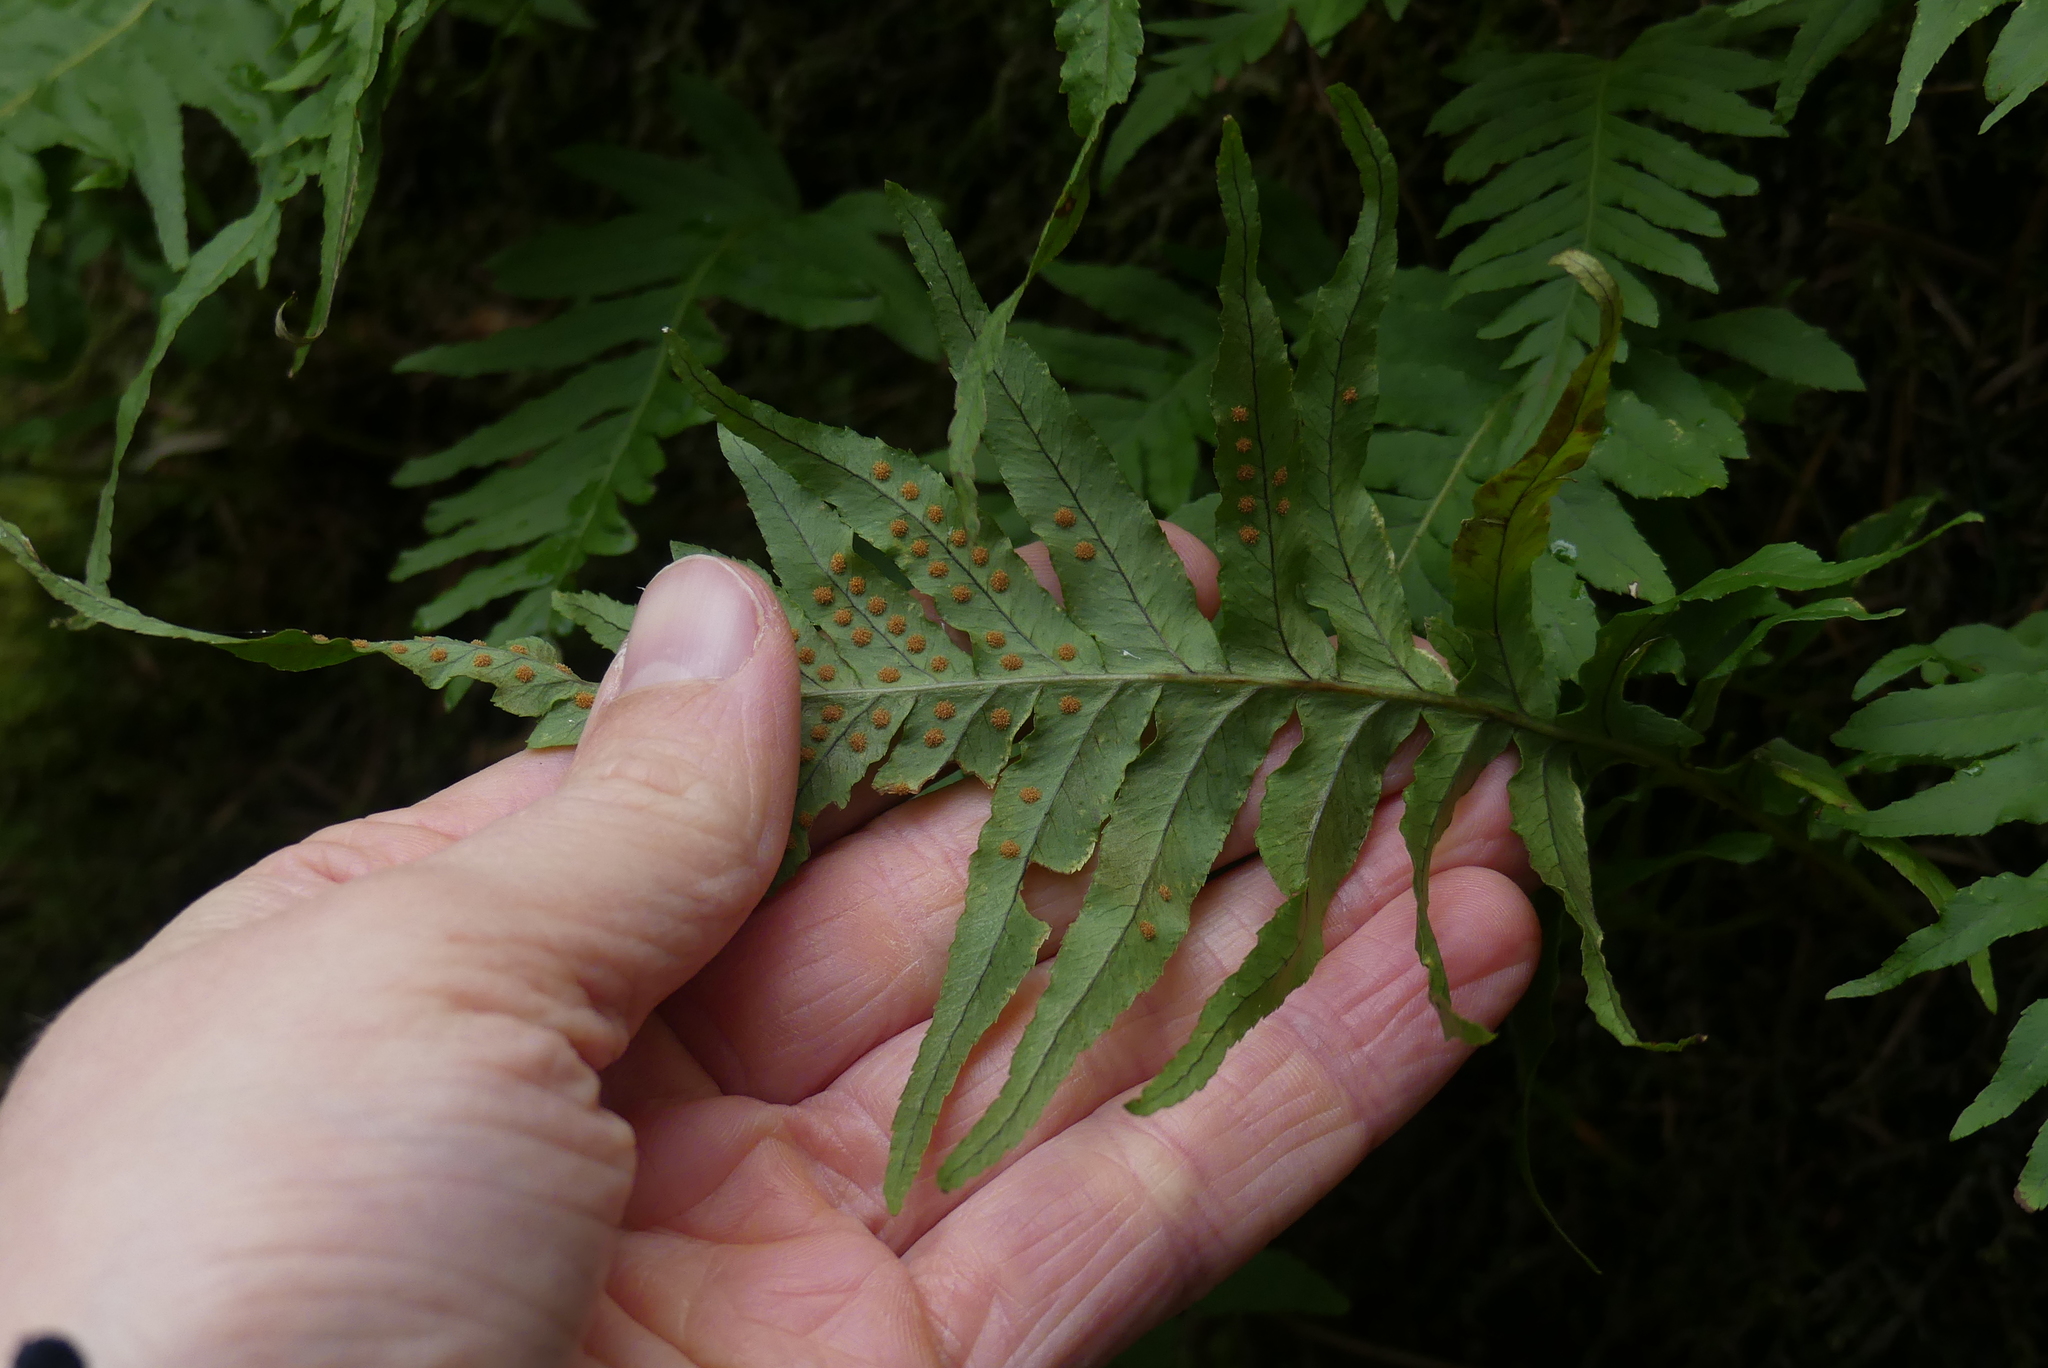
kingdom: Plantae
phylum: Tracheophyta
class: Polypodiopsida
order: Polypodiales
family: Polypodiaceae
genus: Polypodium
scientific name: Polypodium glycyrrhiza
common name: Licorice fern
